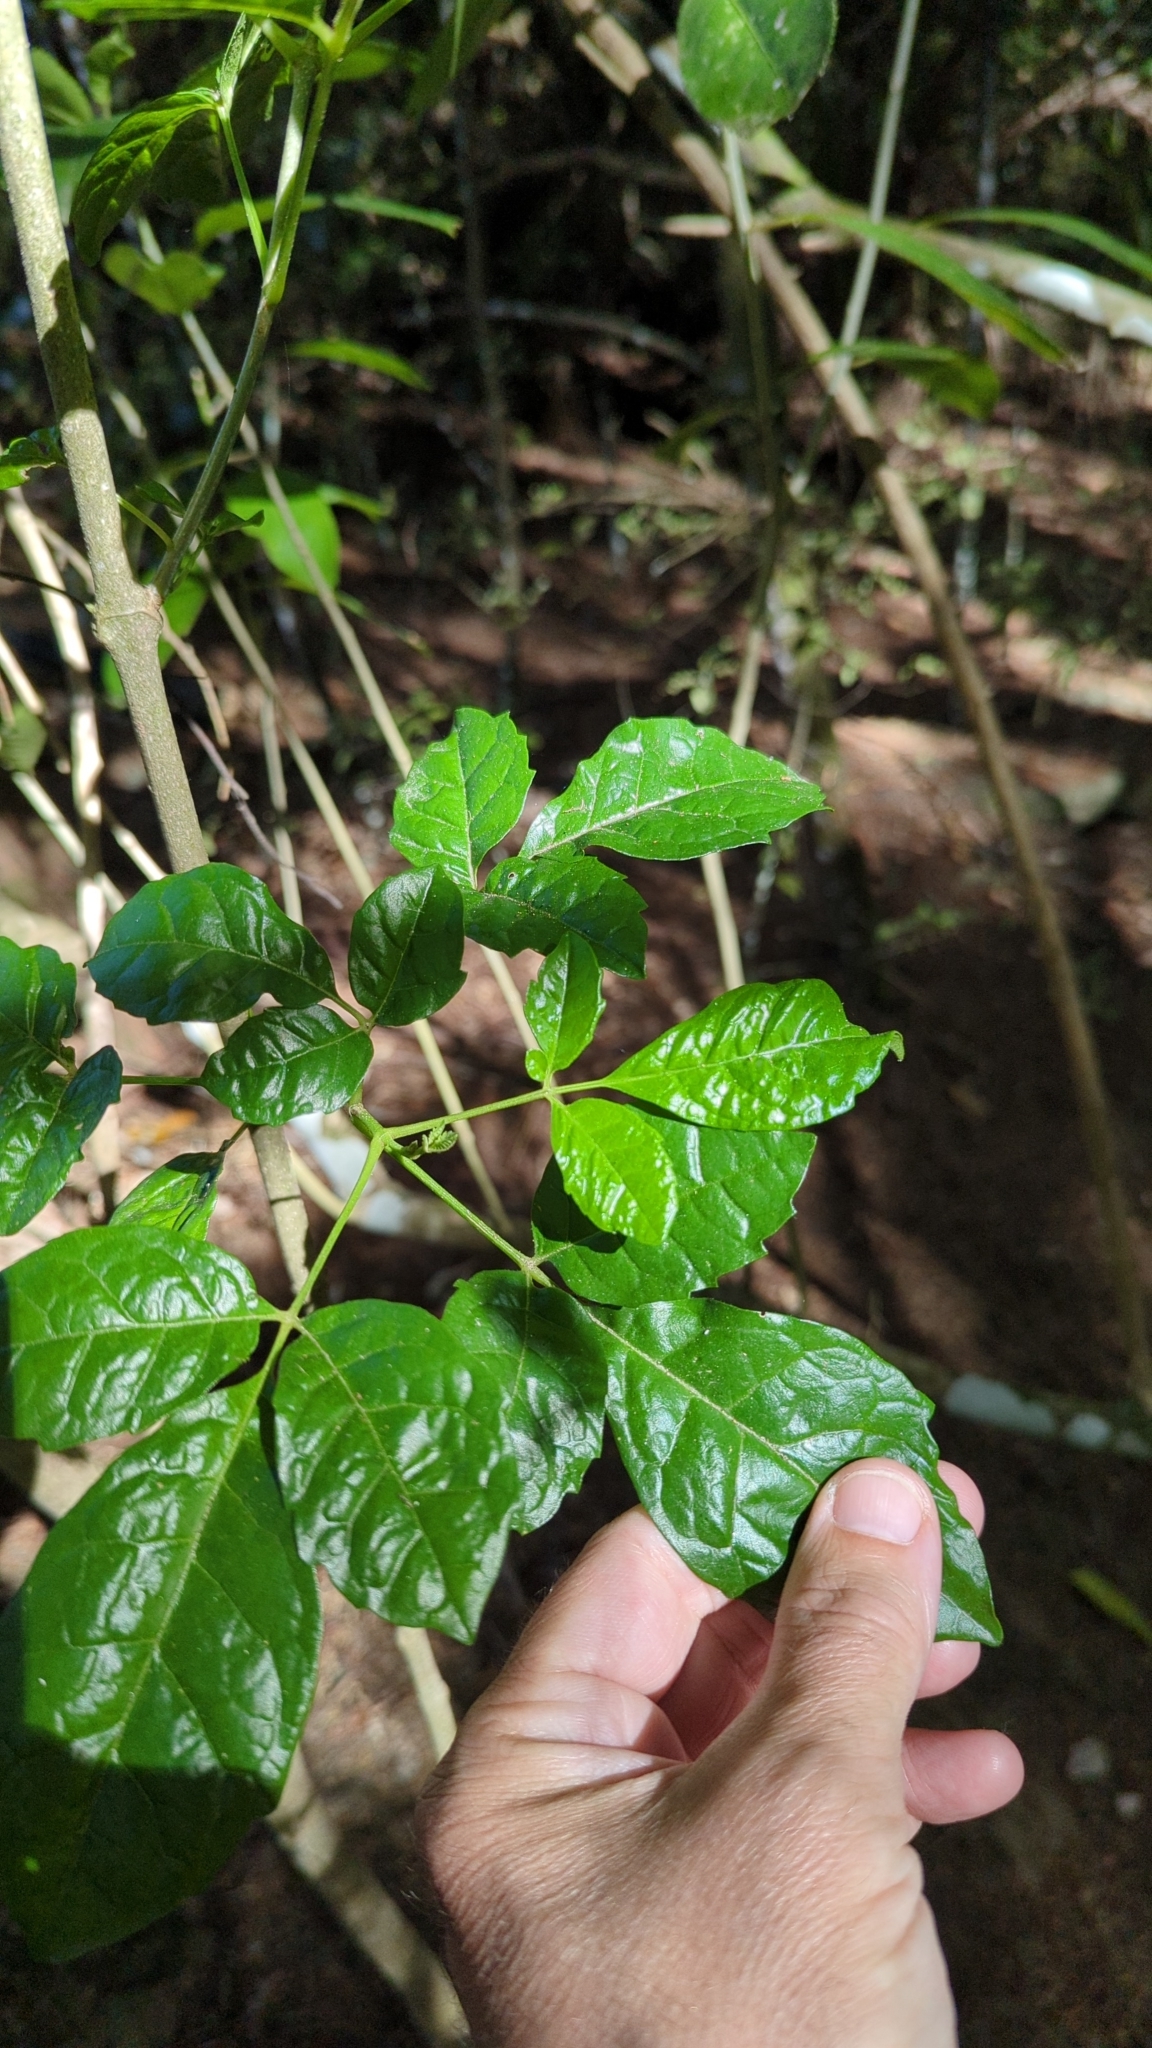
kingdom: Plantae
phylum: Tracheophyta
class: Magnoliopsida
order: Lamiales
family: Lamiaceae
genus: Vitex
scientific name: Vitex lucens
